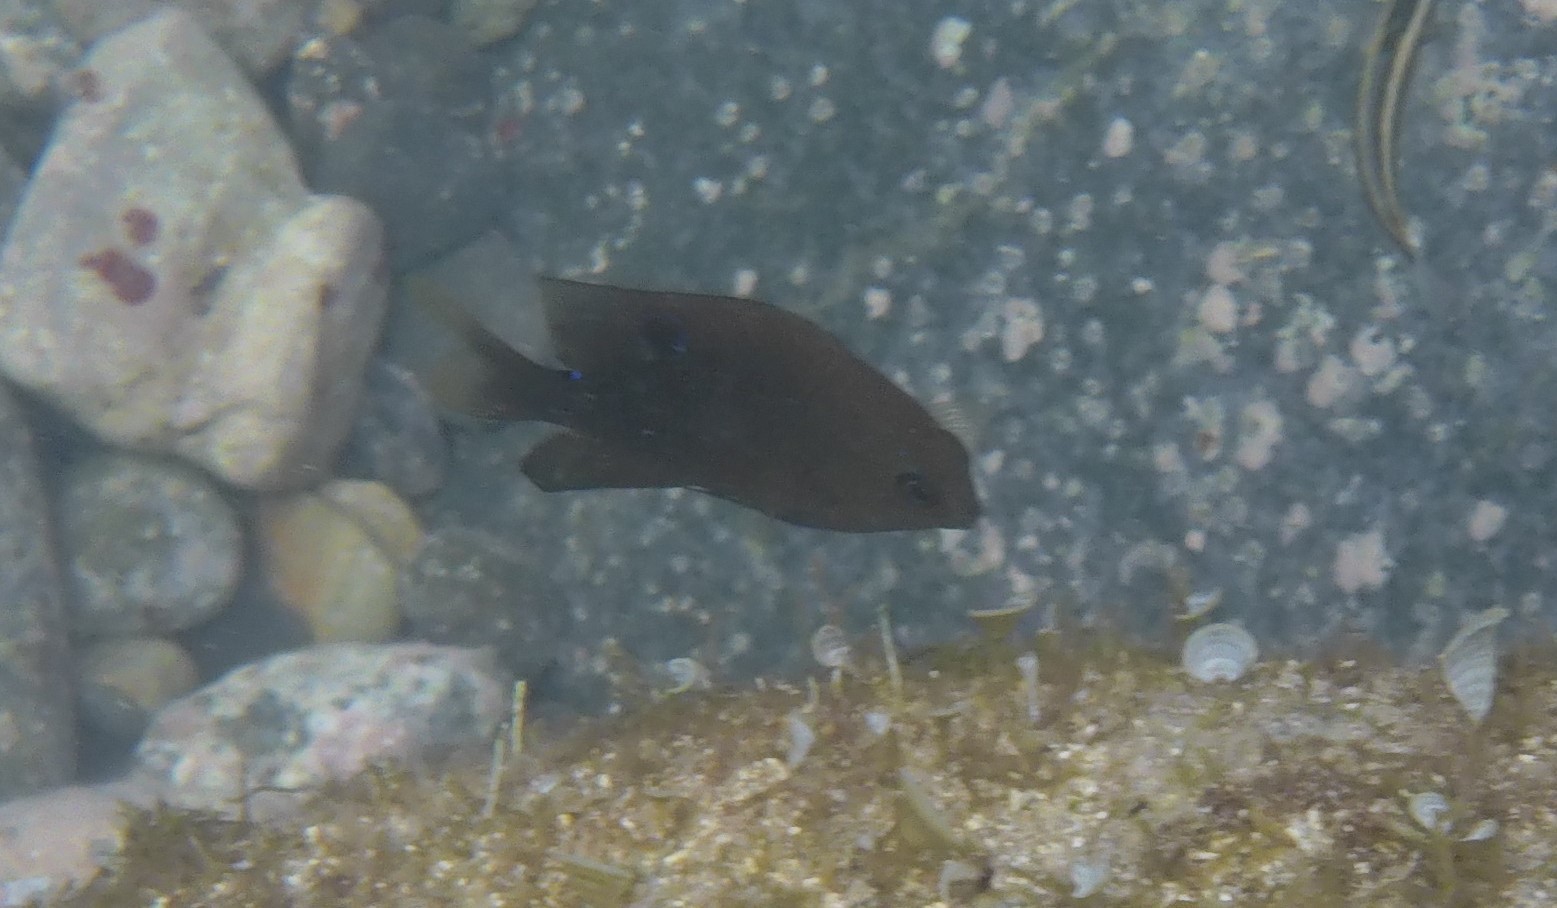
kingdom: Animalia
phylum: Chordata
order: Perciformes
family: Pomacentridae
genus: Stegastes
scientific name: Stegastes adustus
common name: Dusky damselfish
